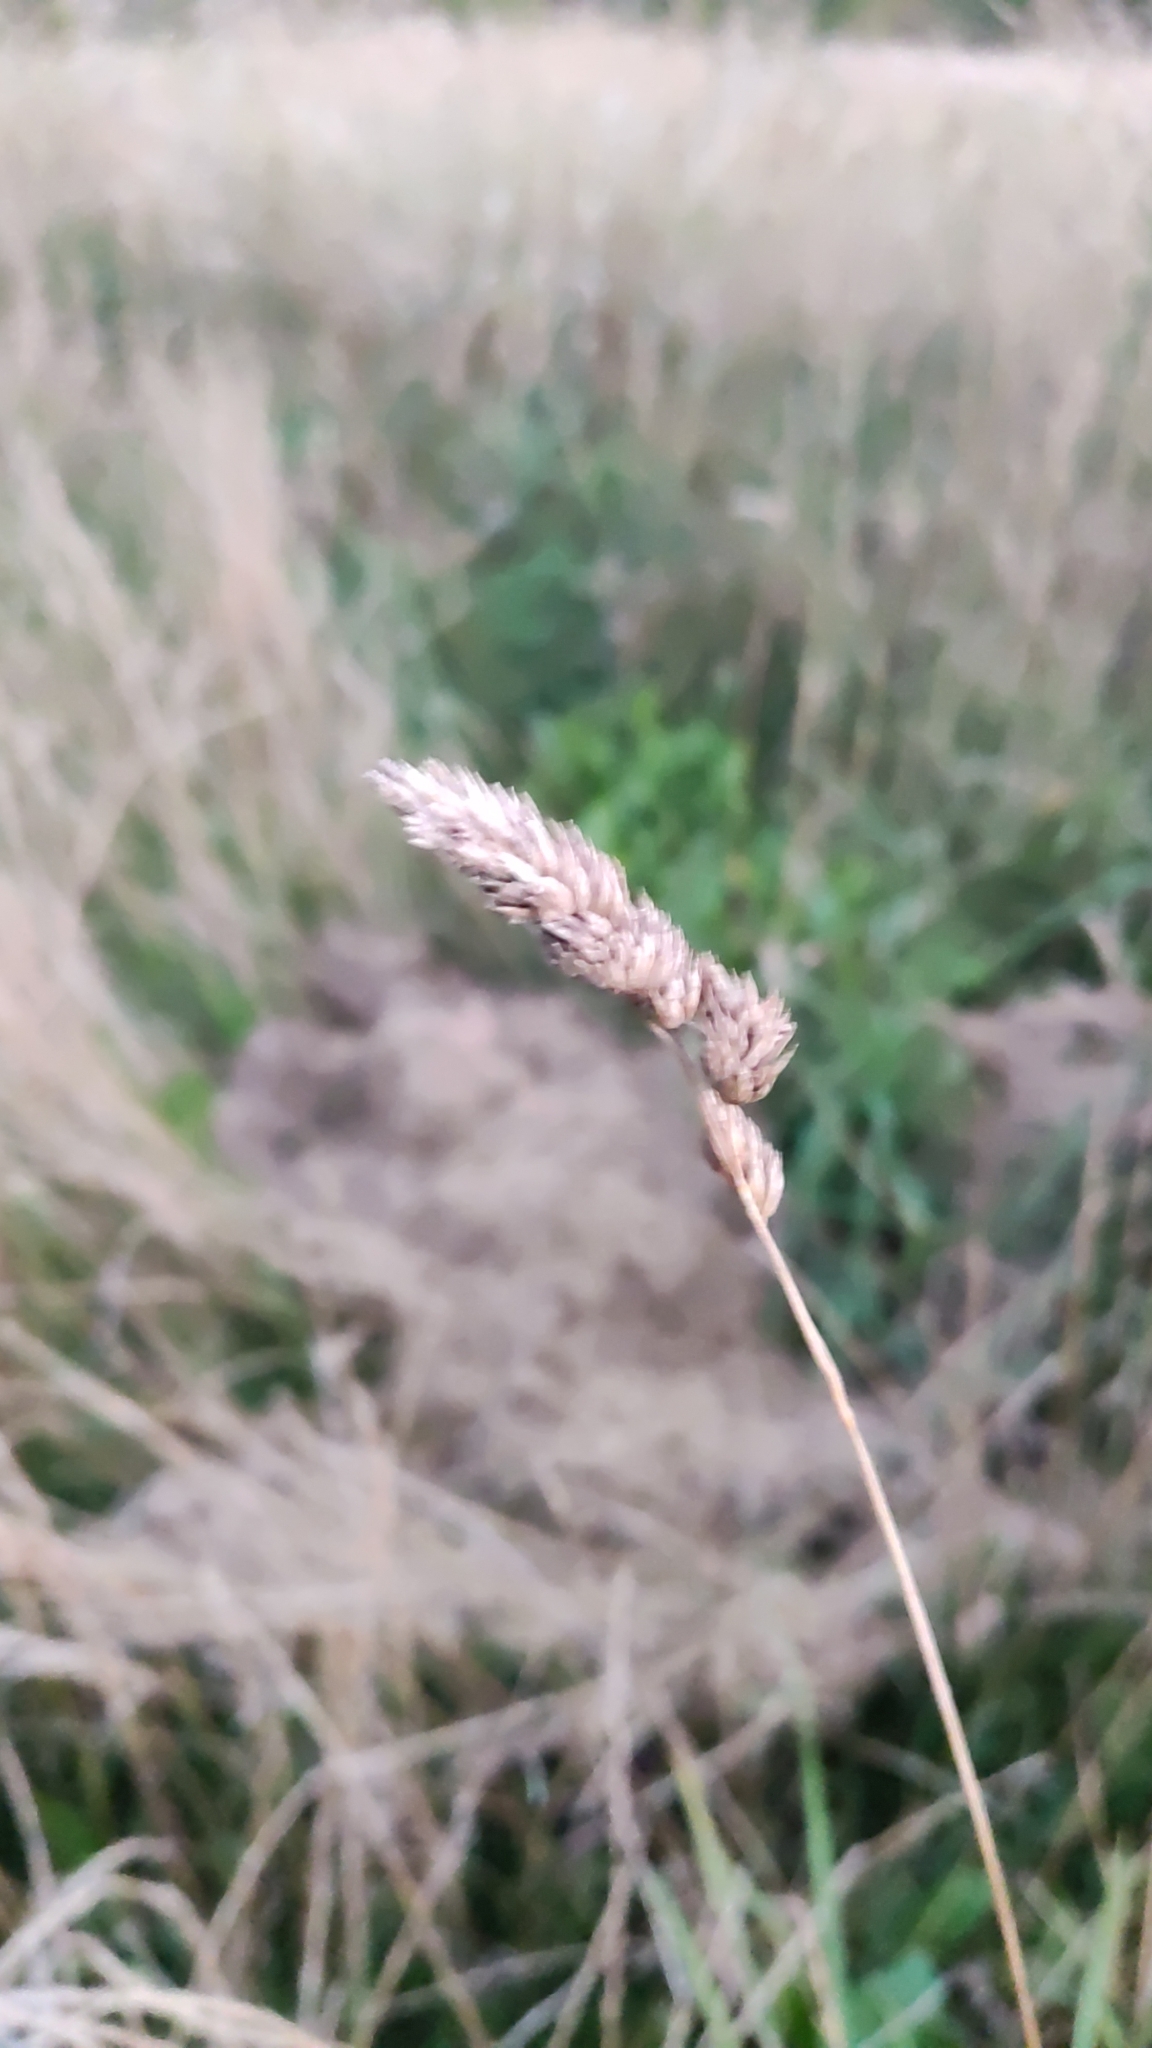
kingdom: Plantae
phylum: Tracheophyta
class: Liliopsida
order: Poales
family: Poaceae
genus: Dactylis
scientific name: Dactylis glomerata
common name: Orchardgrass
